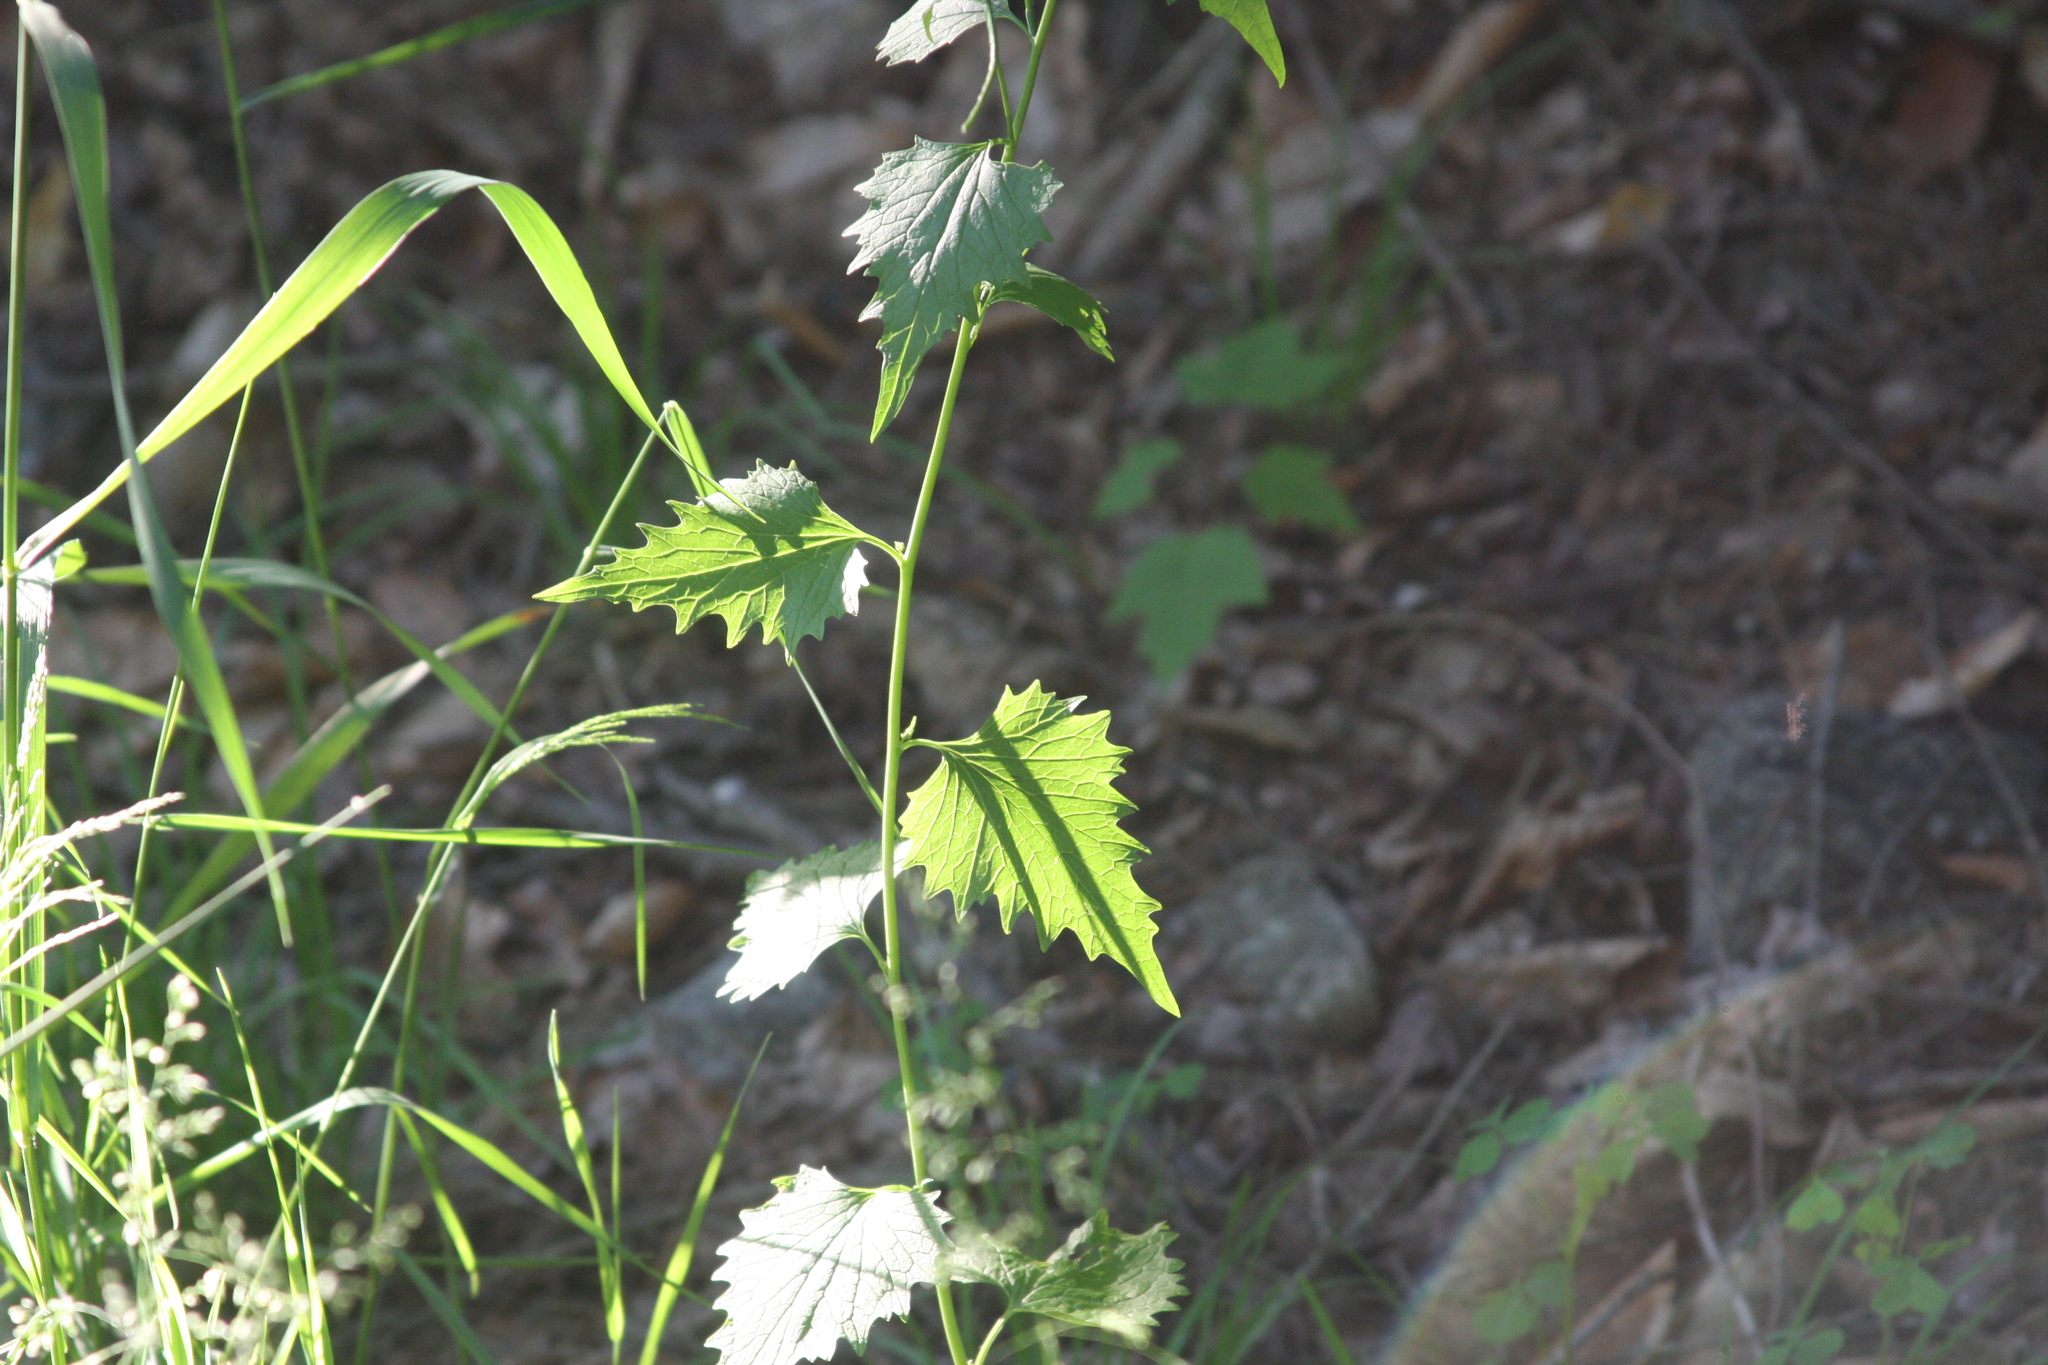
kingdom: Plantae
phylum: Tracheophyta
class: Magnoliopsida
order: Brassicales
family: Brassicaceae
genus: Alliaria
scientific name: Alliaria petiolata
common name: Garlic mustard
